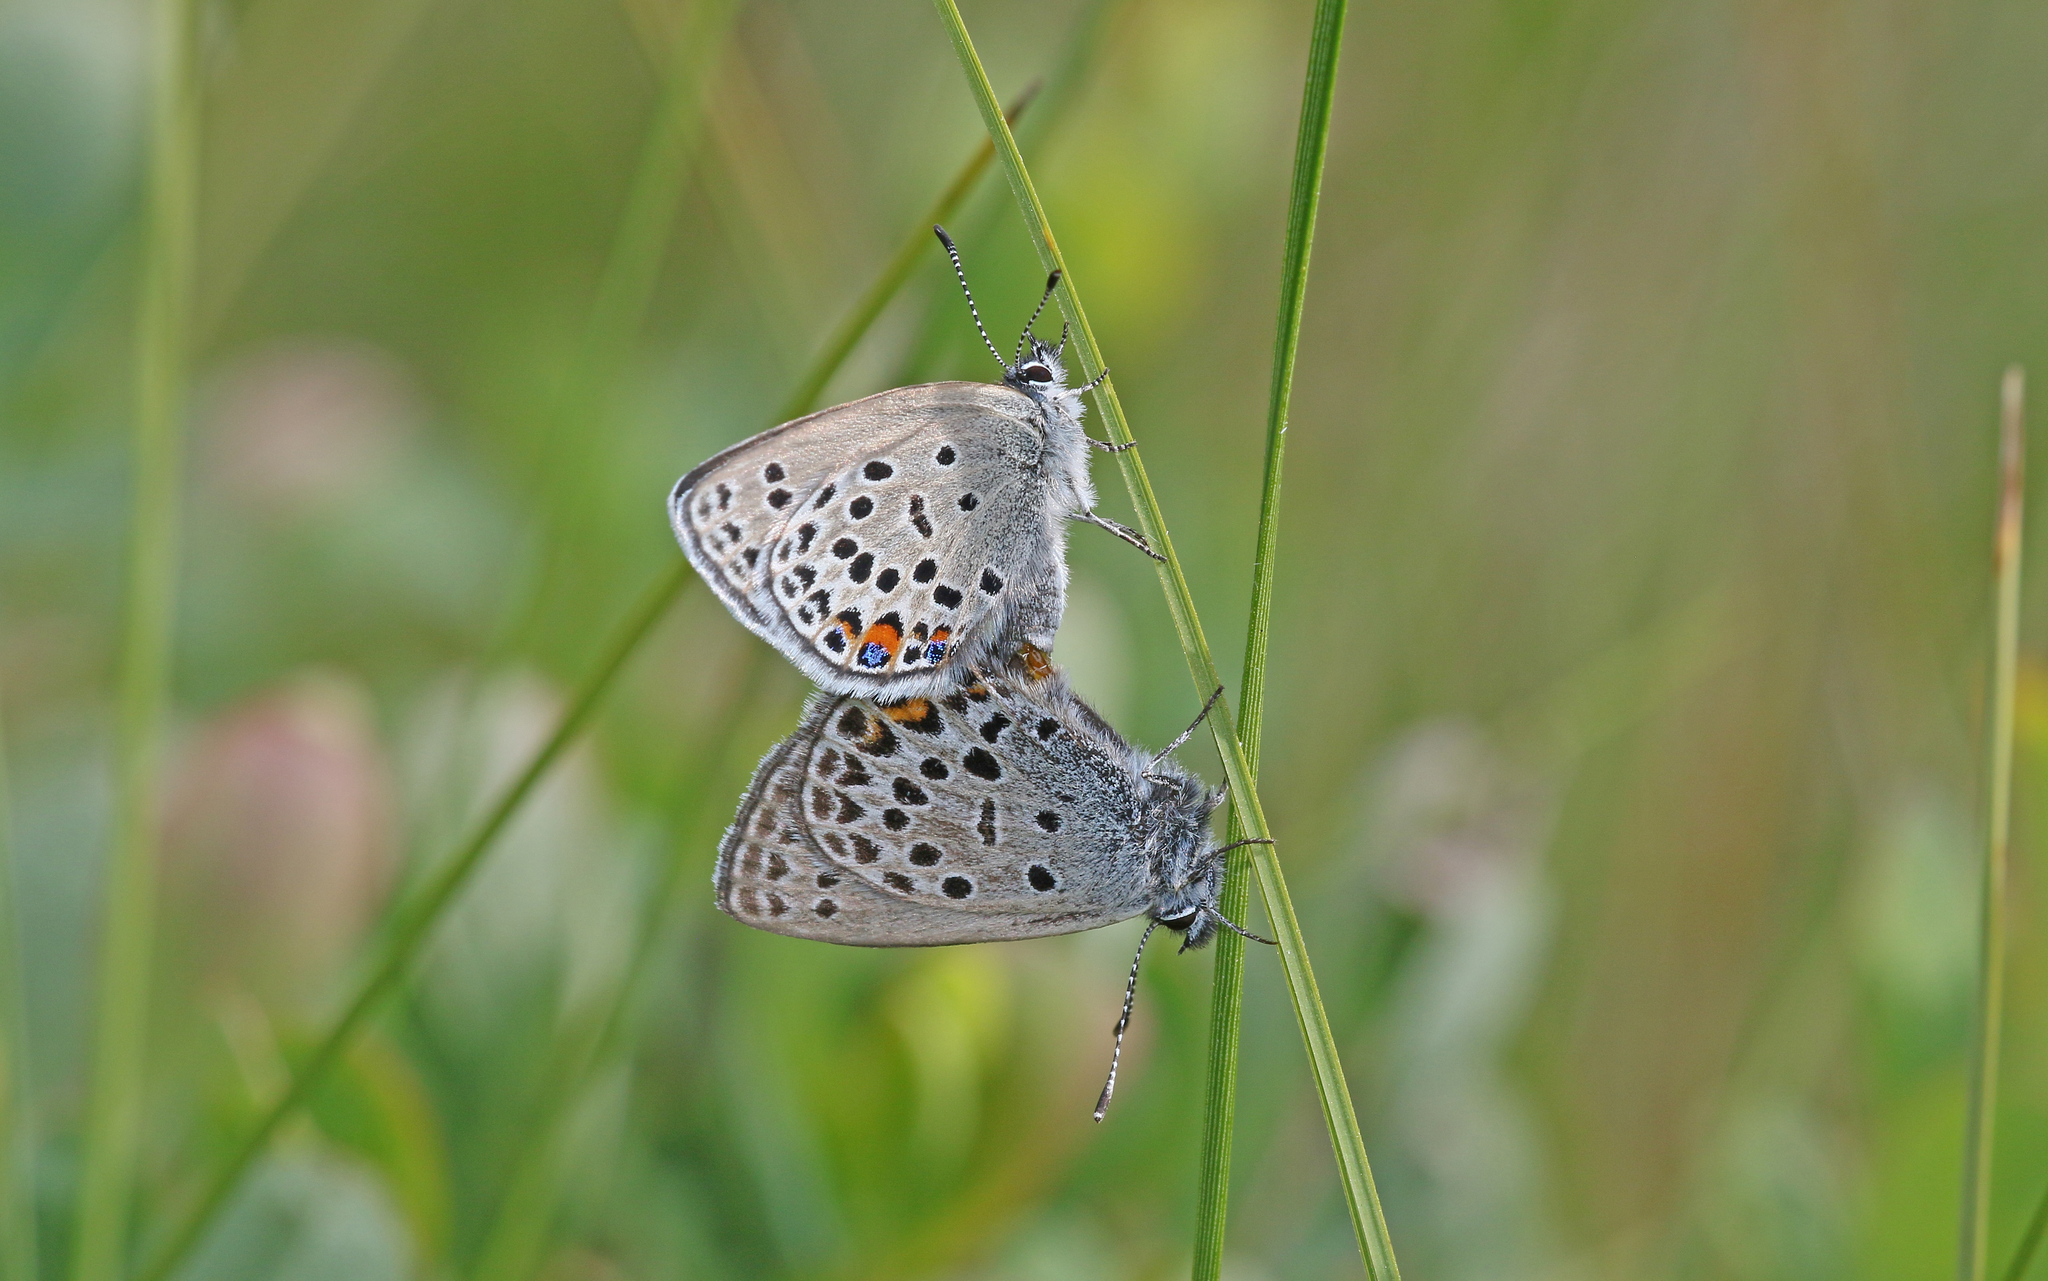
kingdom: Animalia
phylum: Arthropoda
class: Insecta
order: Lepidoptera
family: Lycaenidae
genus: Vacciniina
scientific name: Vacciniina optilete
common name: Cranberry blue
